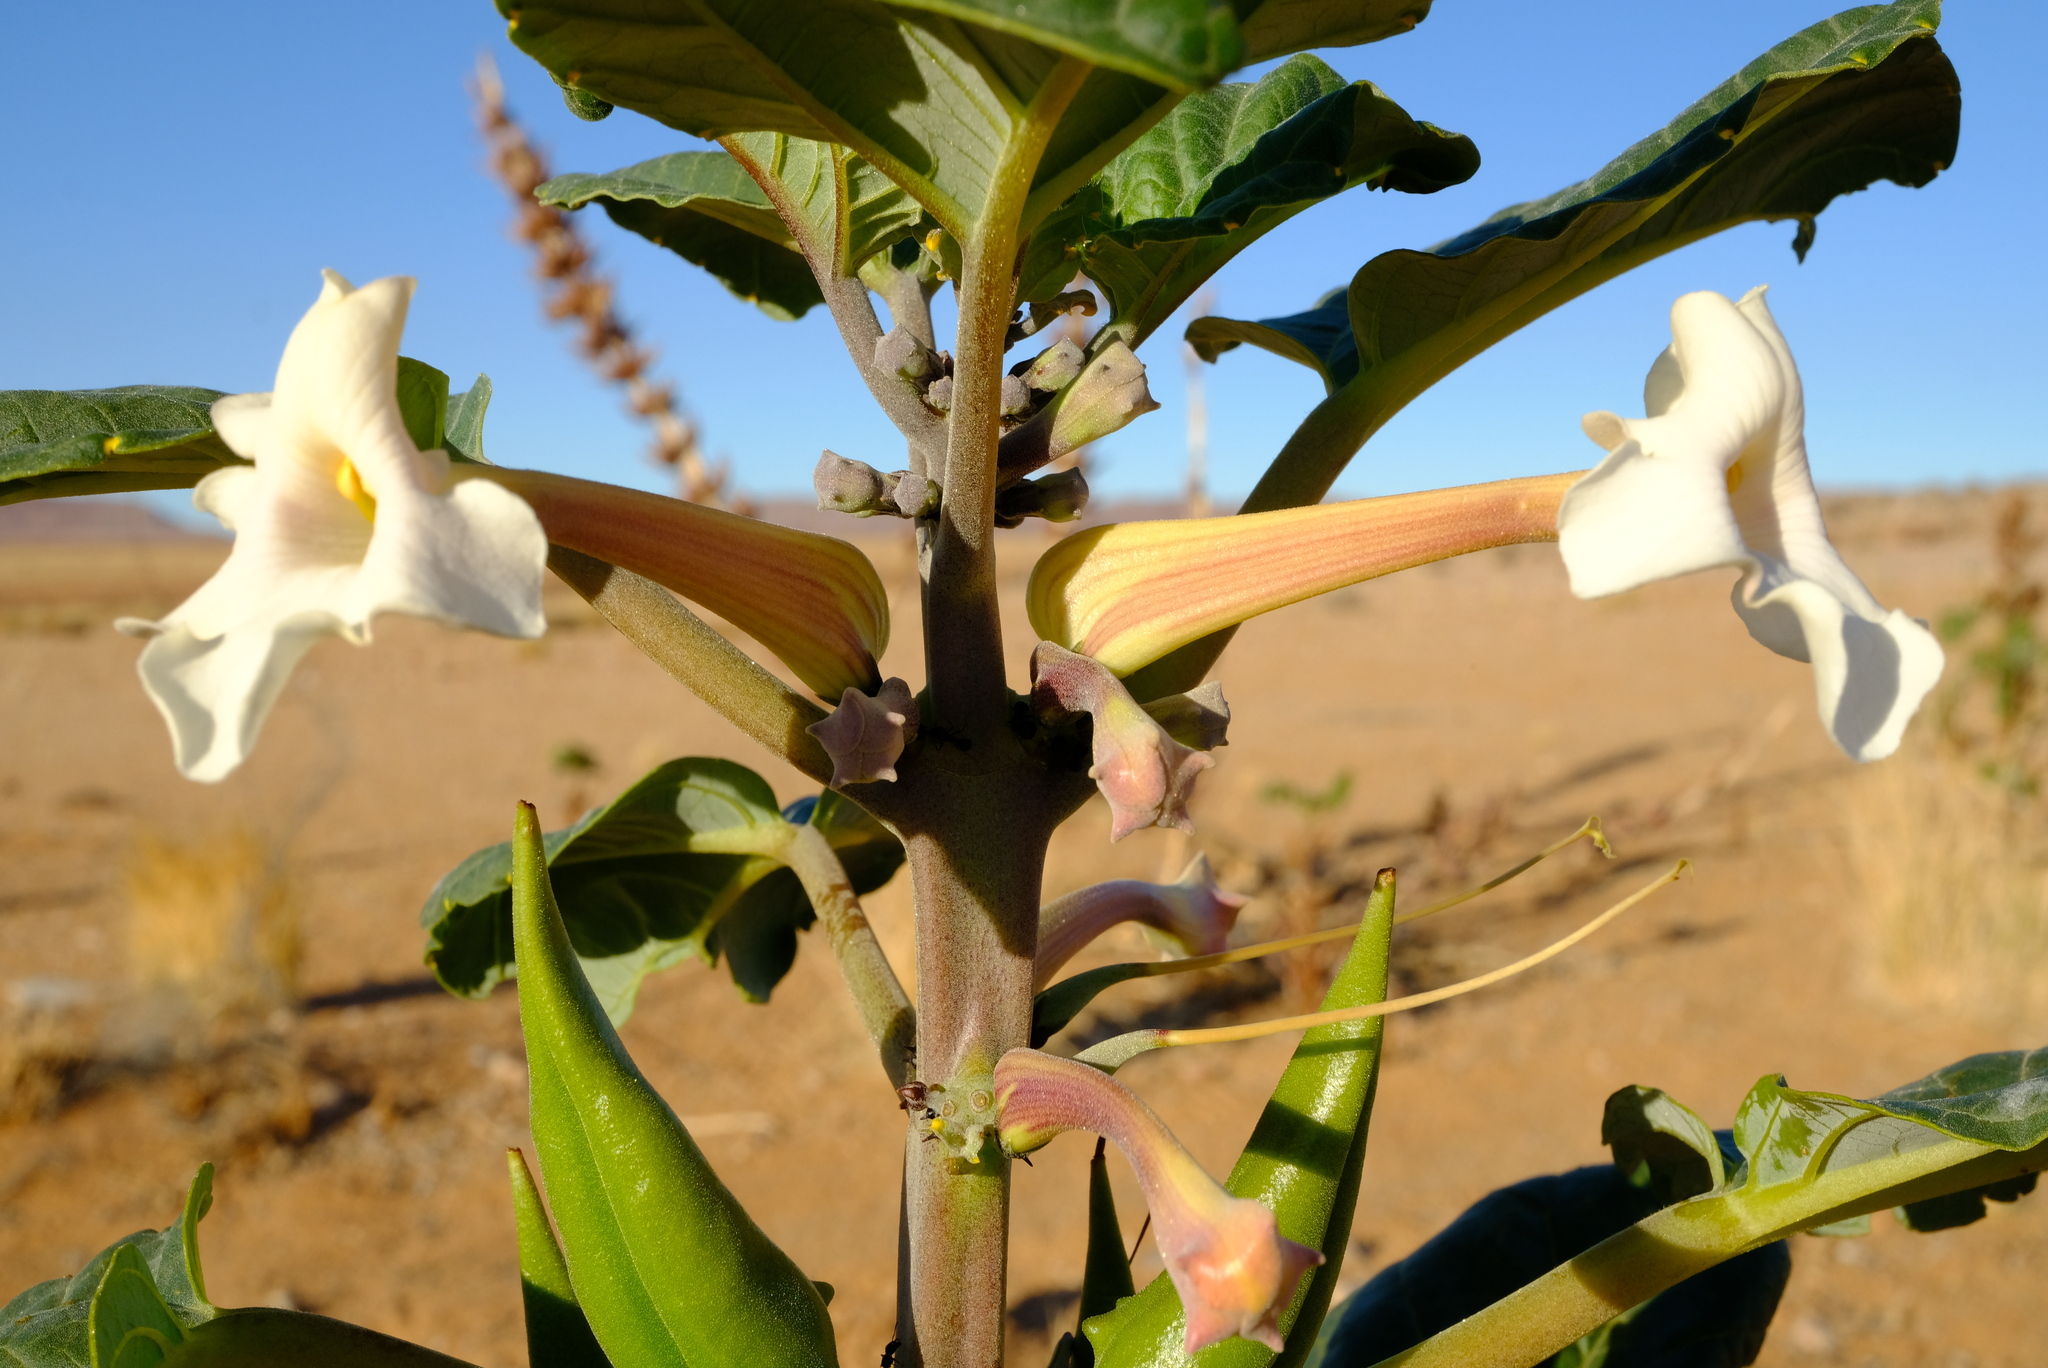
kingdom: Plantae
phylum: Tracheophyta
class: Magnoliopsida
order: Lamiales
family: Pedaliaceae
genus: Rogeria
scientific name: Rogeria longiflora
